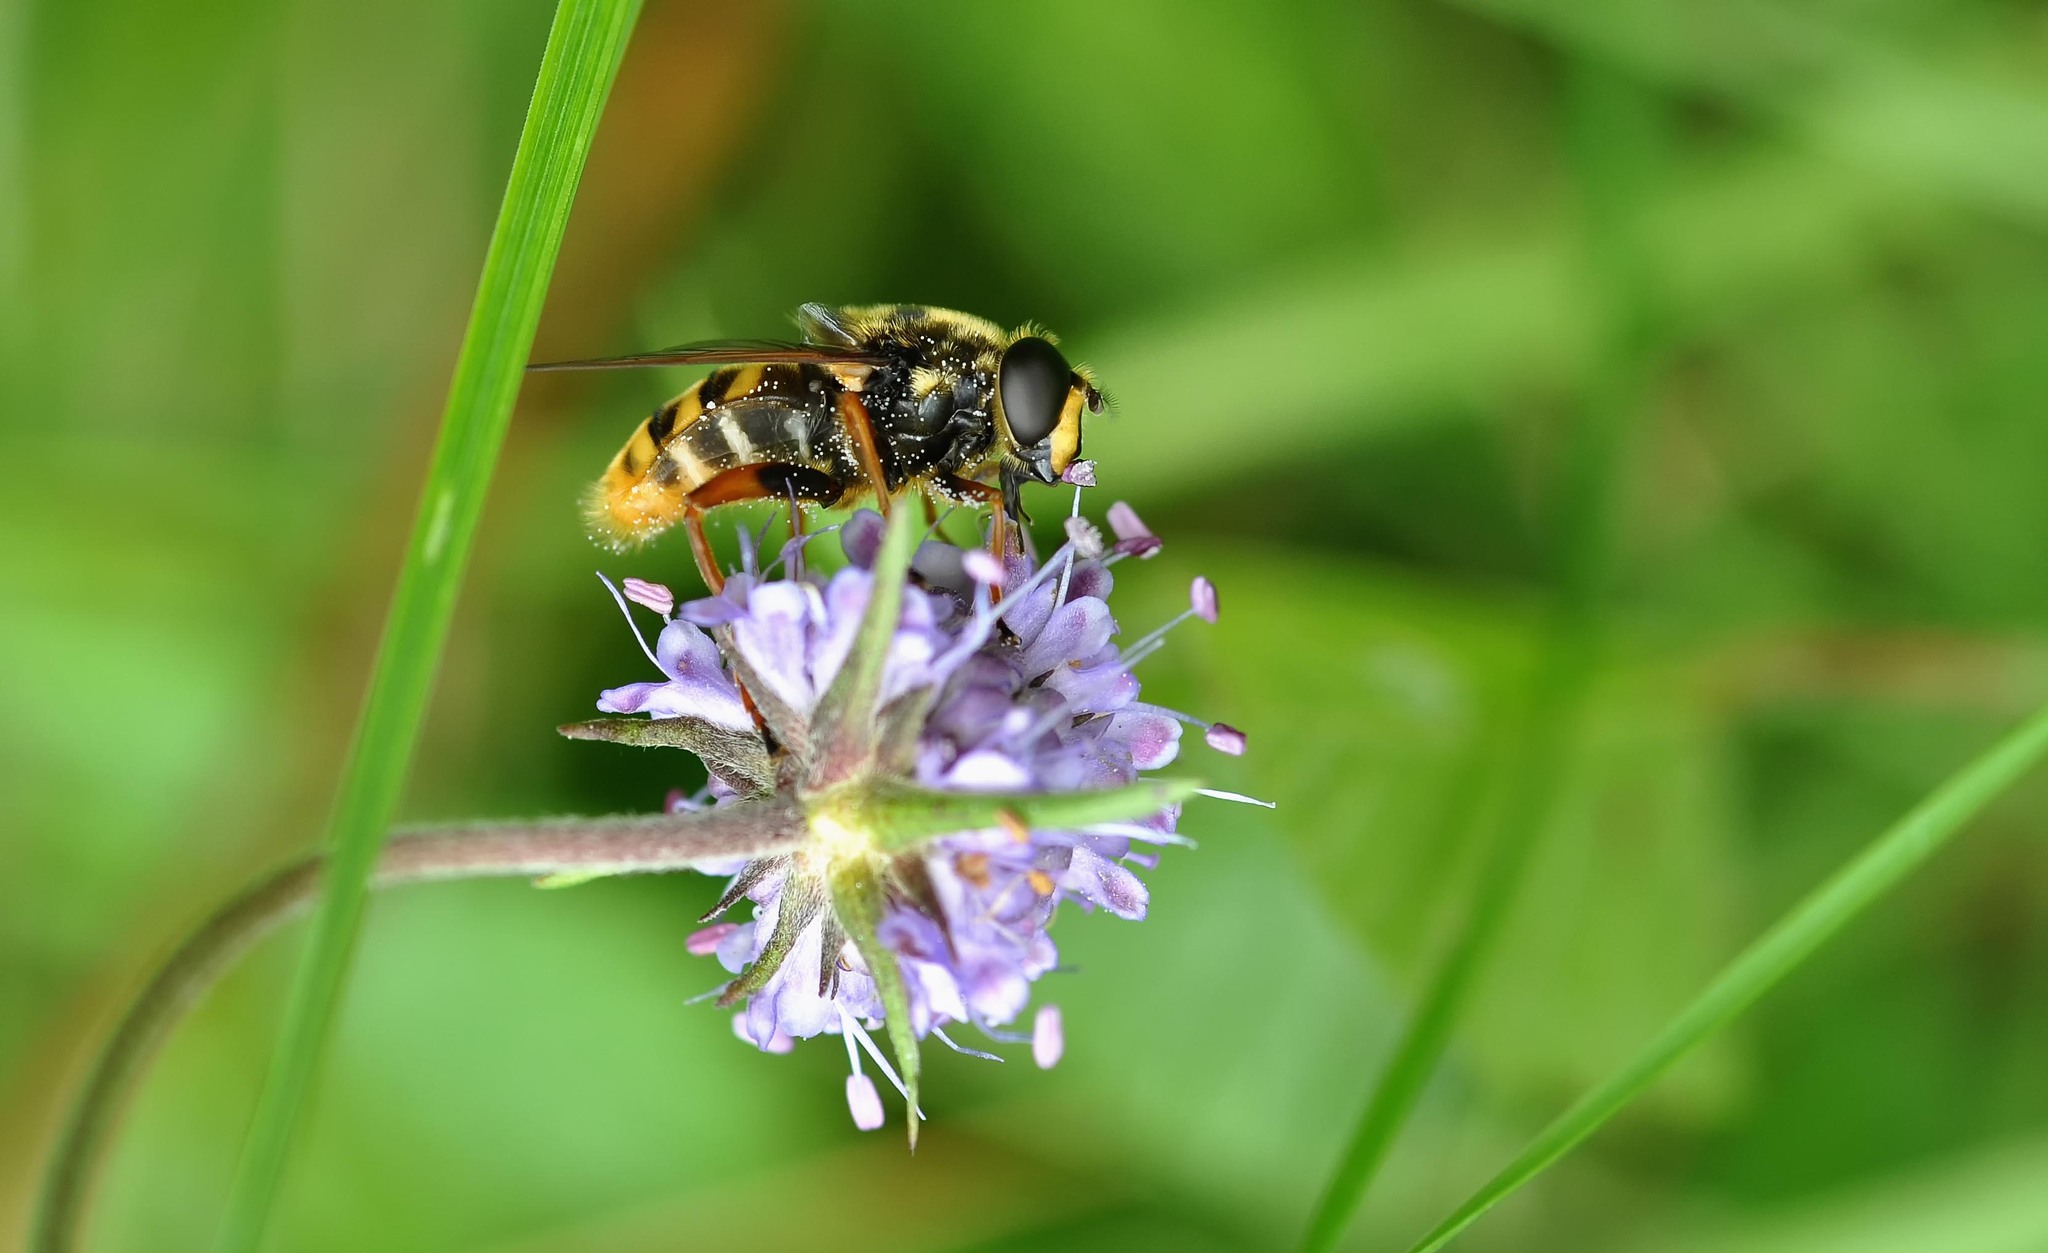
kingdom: Animalia
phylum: Arthropoda
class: Insecta
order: Diptera
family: Syrphidae
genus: Sericomyia
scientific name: Sericomyia silentis
